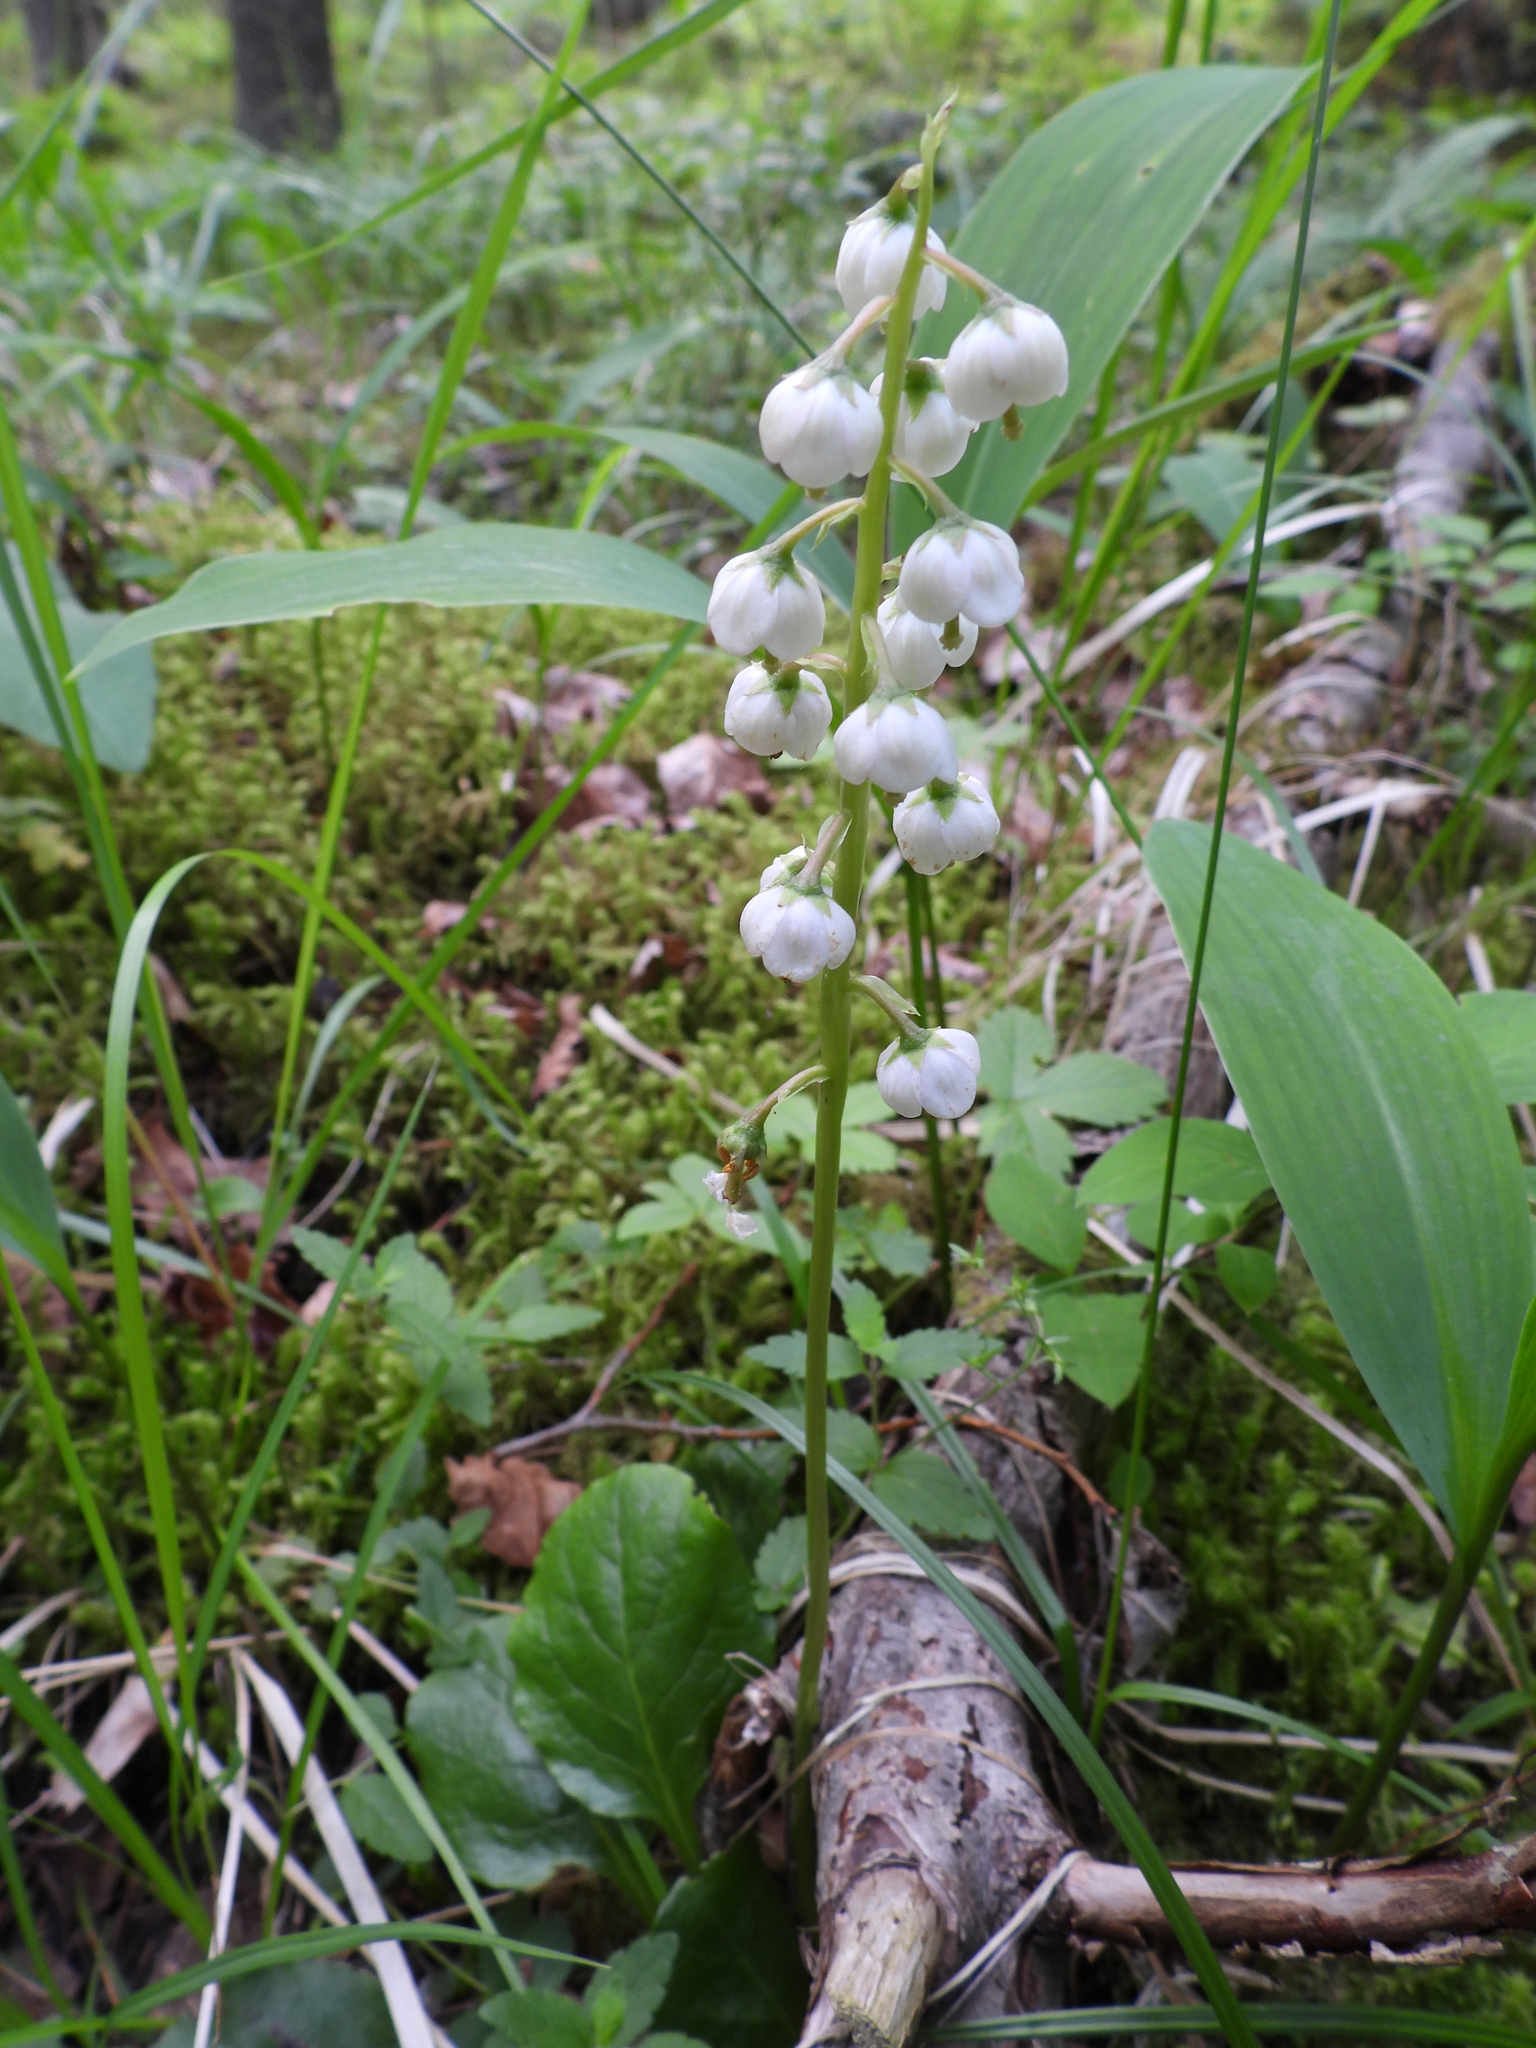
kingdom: Plantae
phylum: Tracheophyta
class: Magnoliopsida
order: Ericales
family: Ericaceae
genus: Pyrola
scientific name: Pyrola media
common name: Intermediate wintergreen
